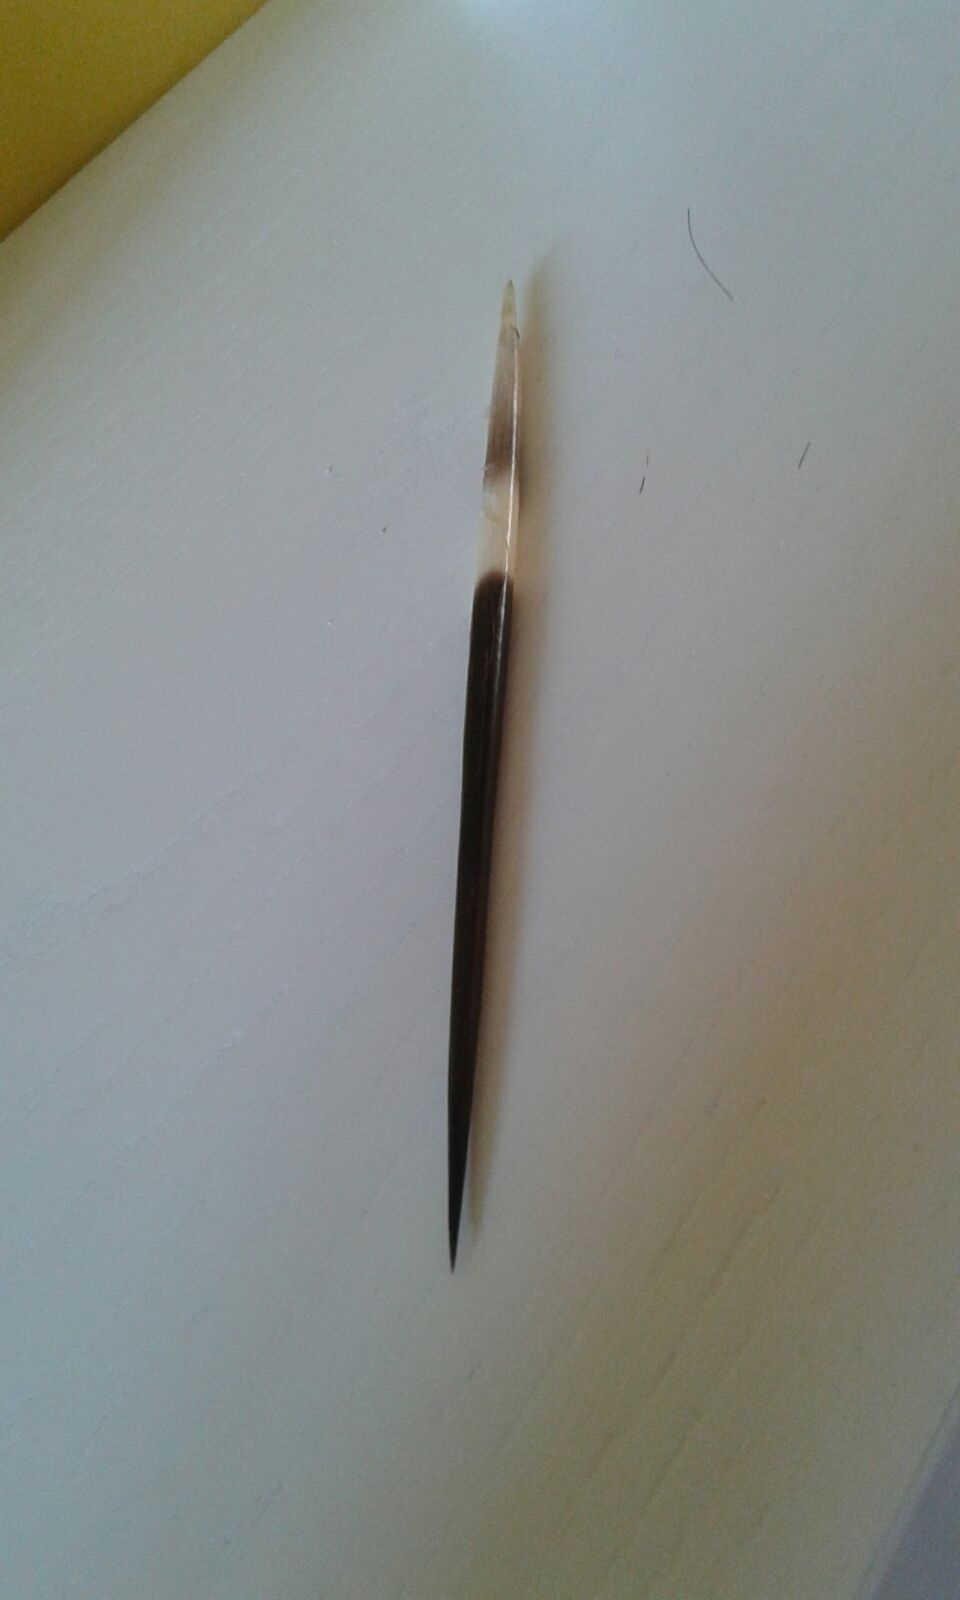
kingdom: Animalia
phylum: Chordata
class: Mammalia
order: Rodentia
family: Hystricidae
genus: Hystrix
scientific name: Hystrix cristata
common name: Crested porcupine
